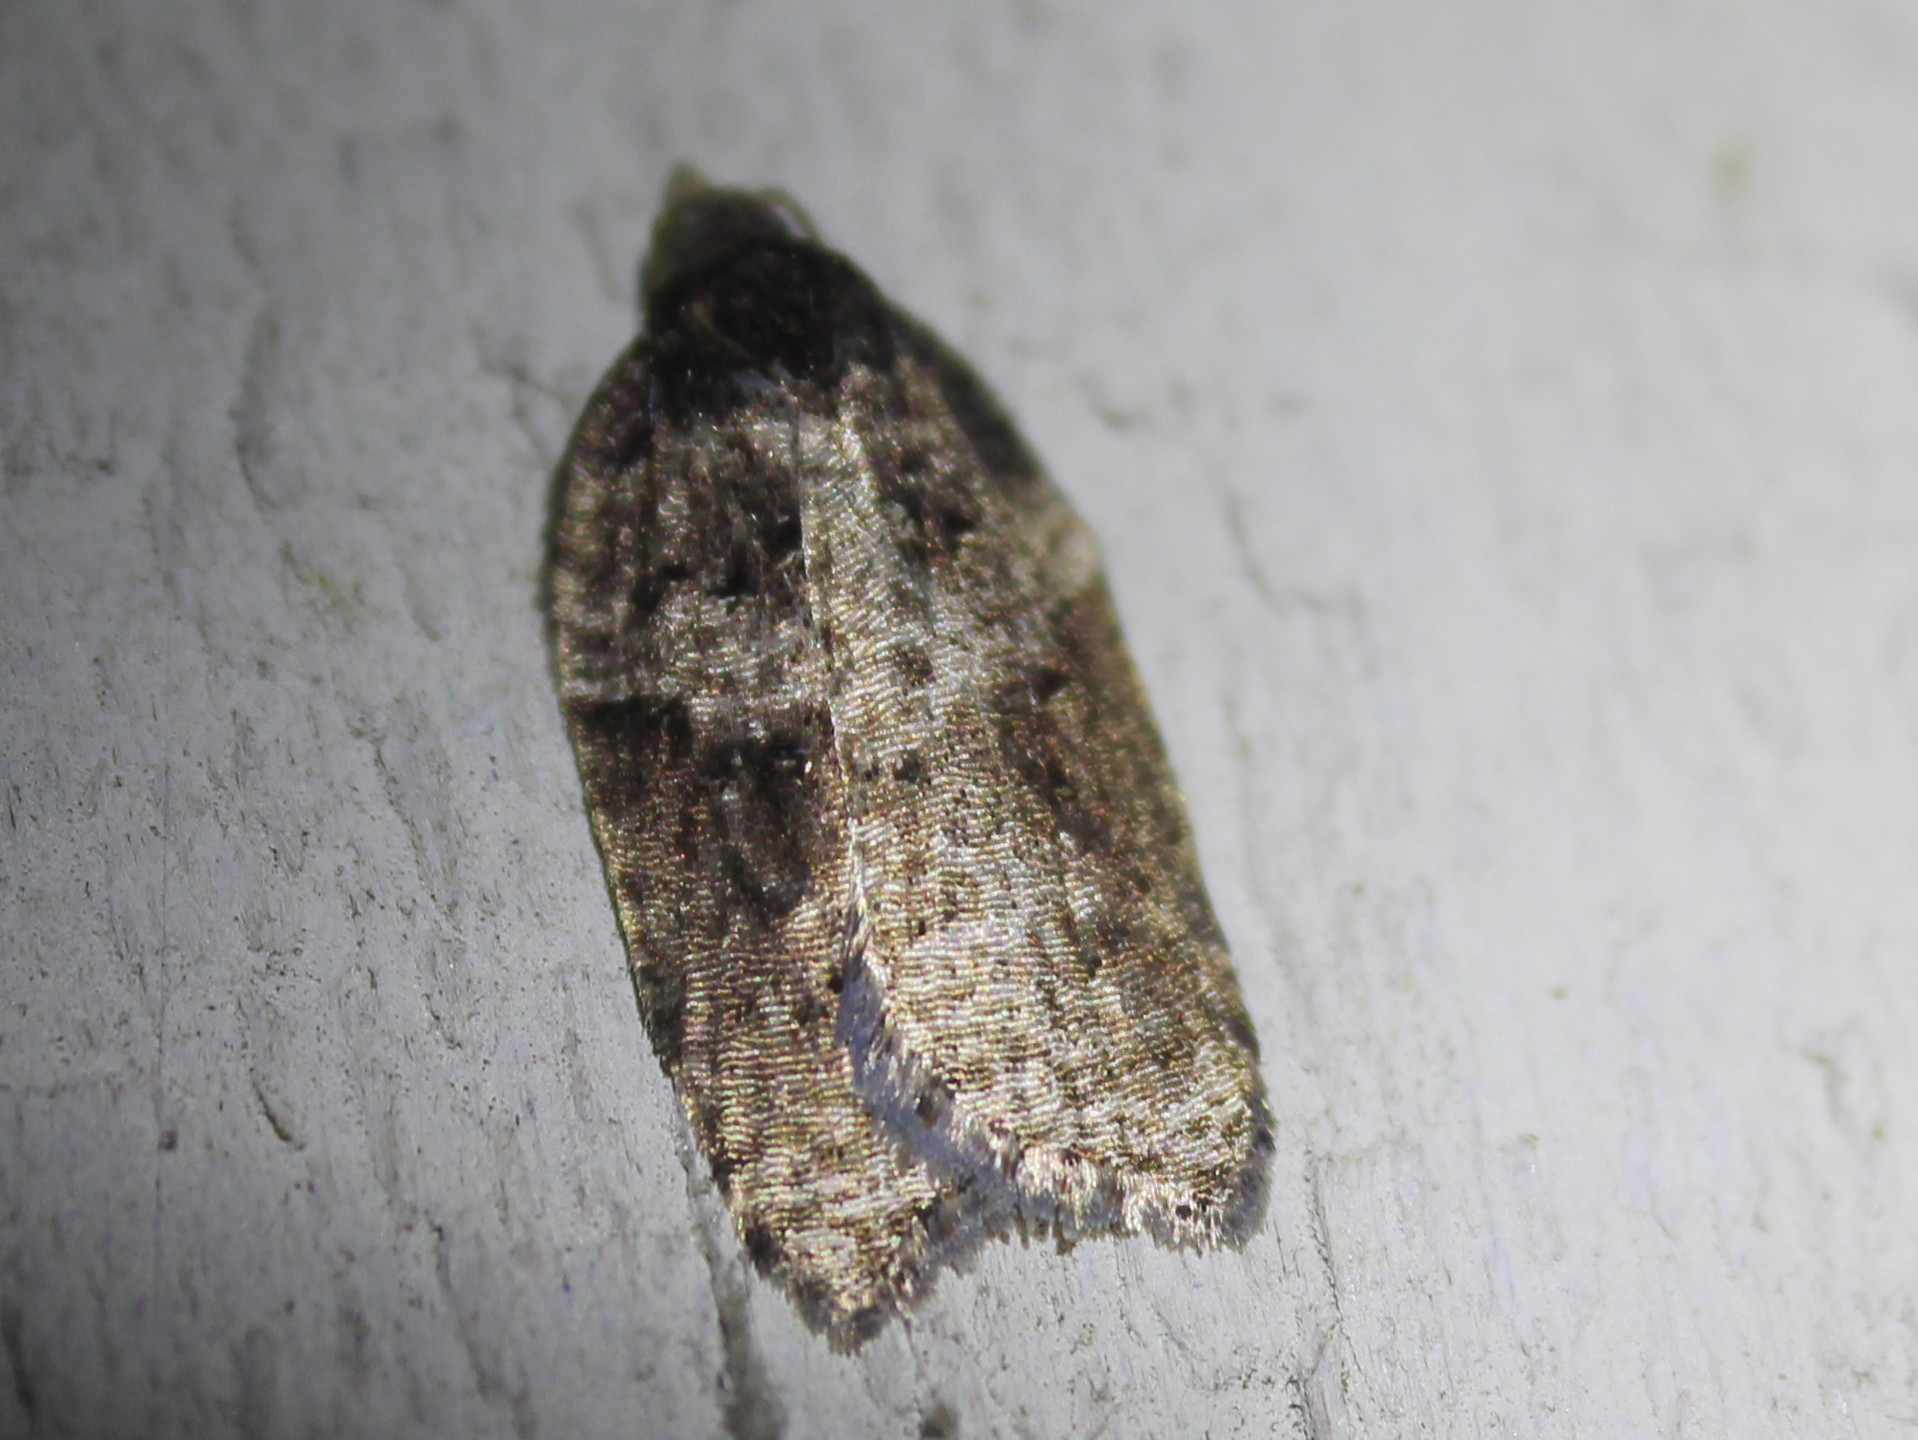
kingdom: Animalia
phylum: Arthropoda
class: Insecta
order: Lepidoptera
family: Tortricidae
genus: Acleris
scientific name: Acleris macdunnoughi
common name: Macdunnough's acleris
